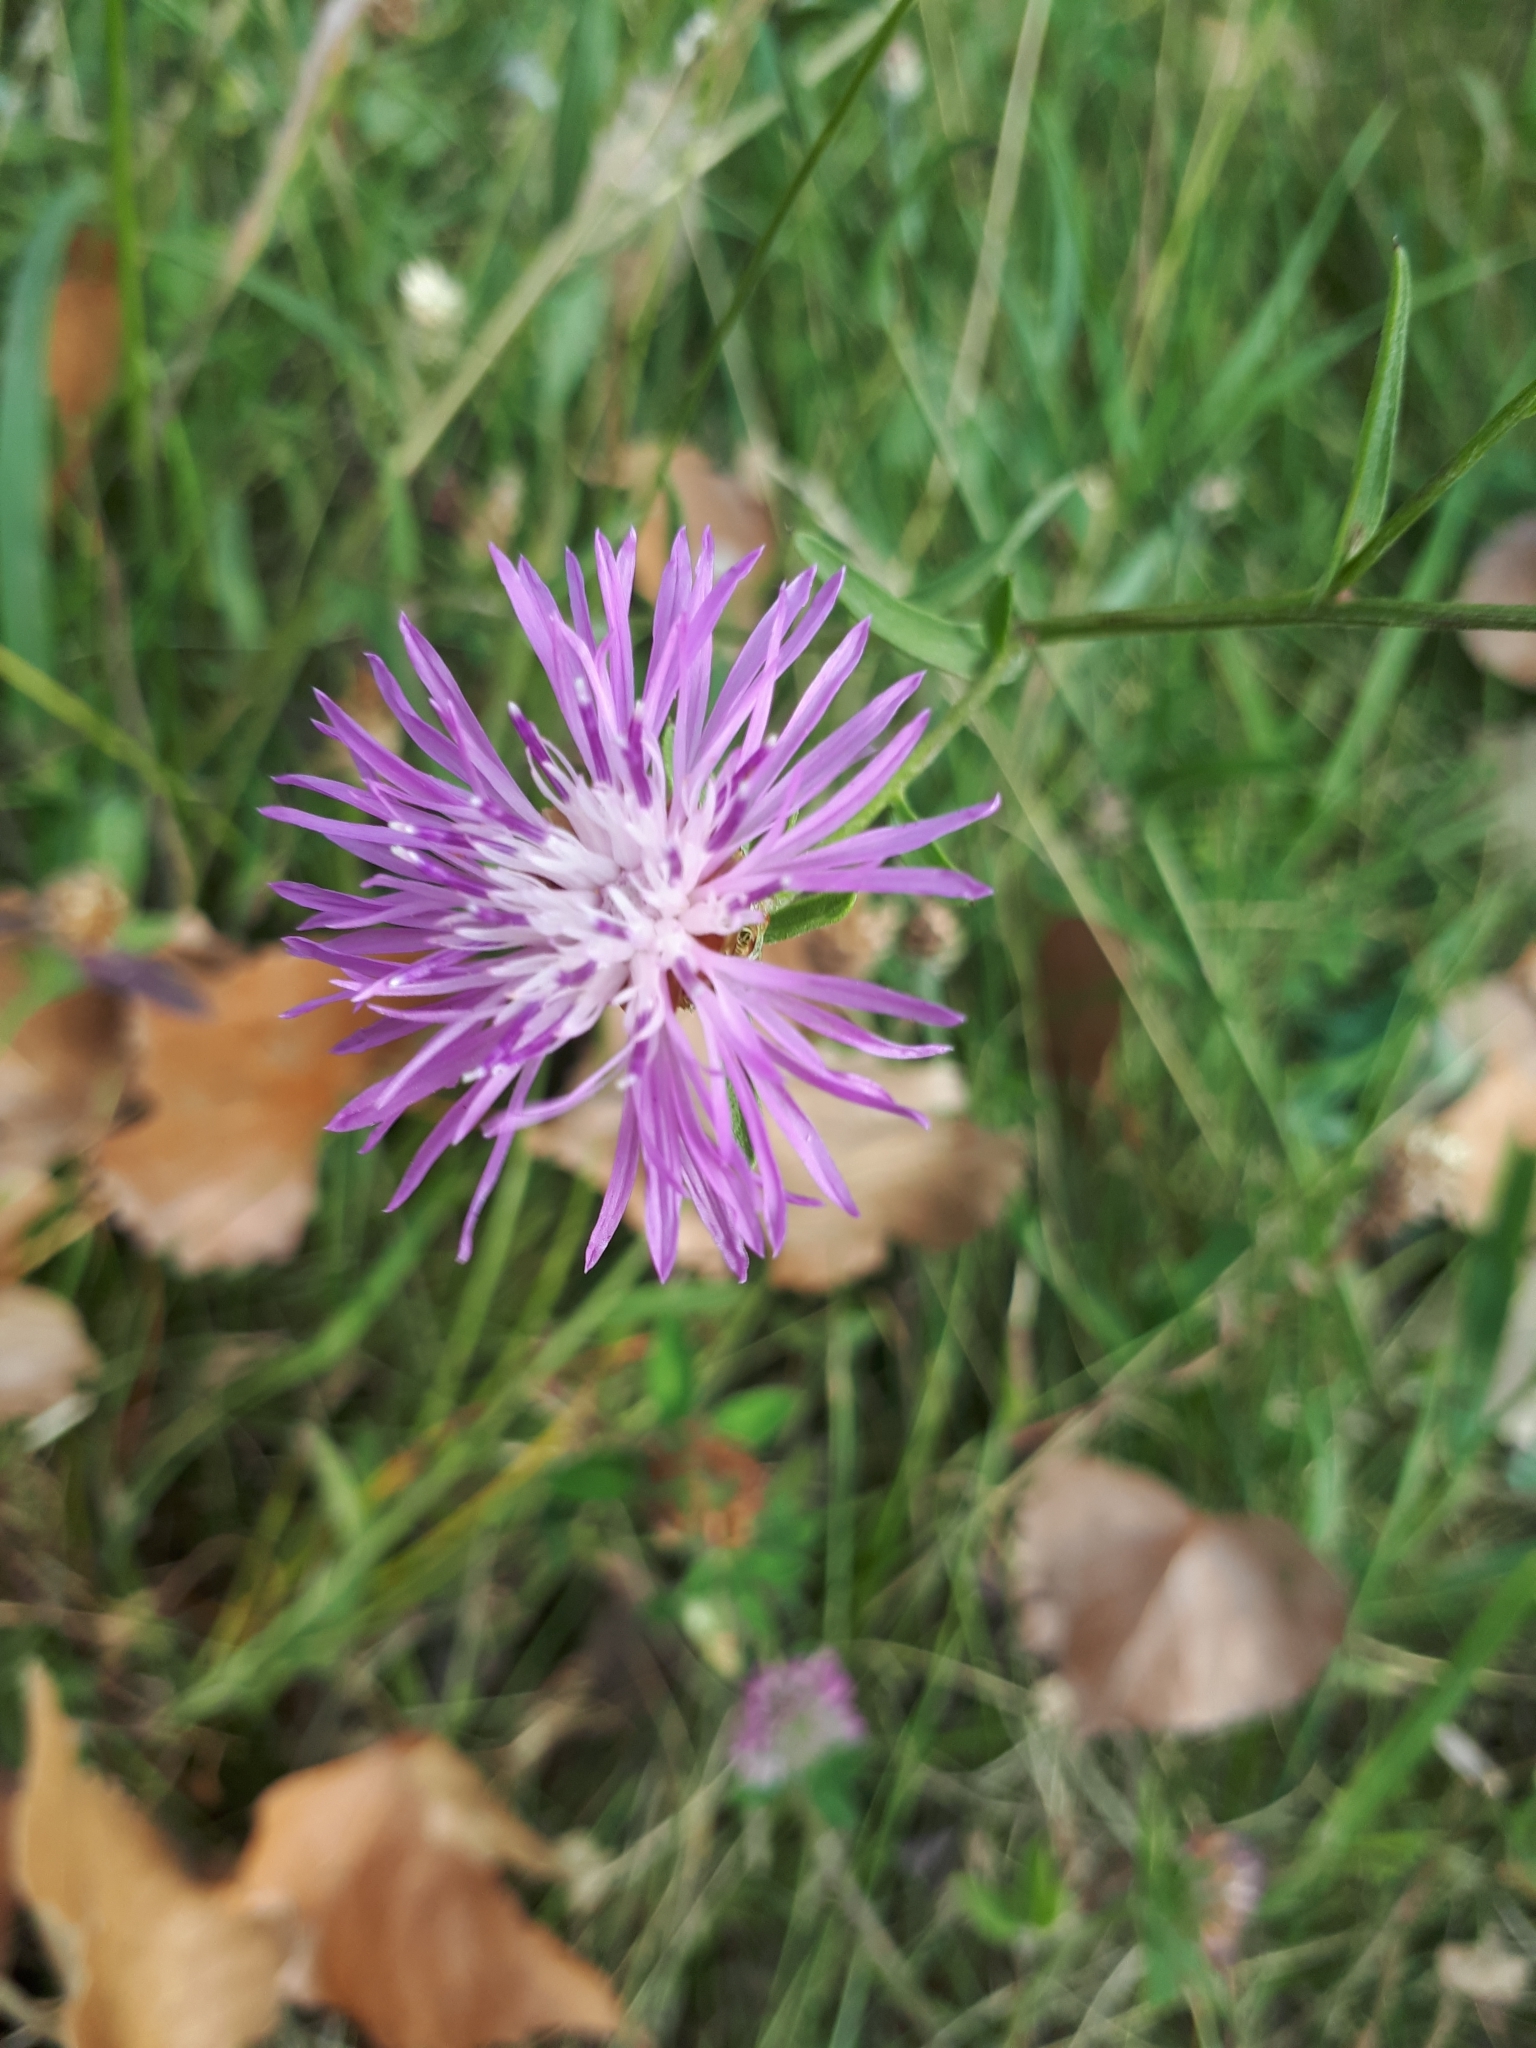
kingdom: Plantae
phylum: Tracheophyta
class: Magnoliopsida
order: Asterales
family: Asteraceae
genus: Centaurea
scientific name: Centaurea
